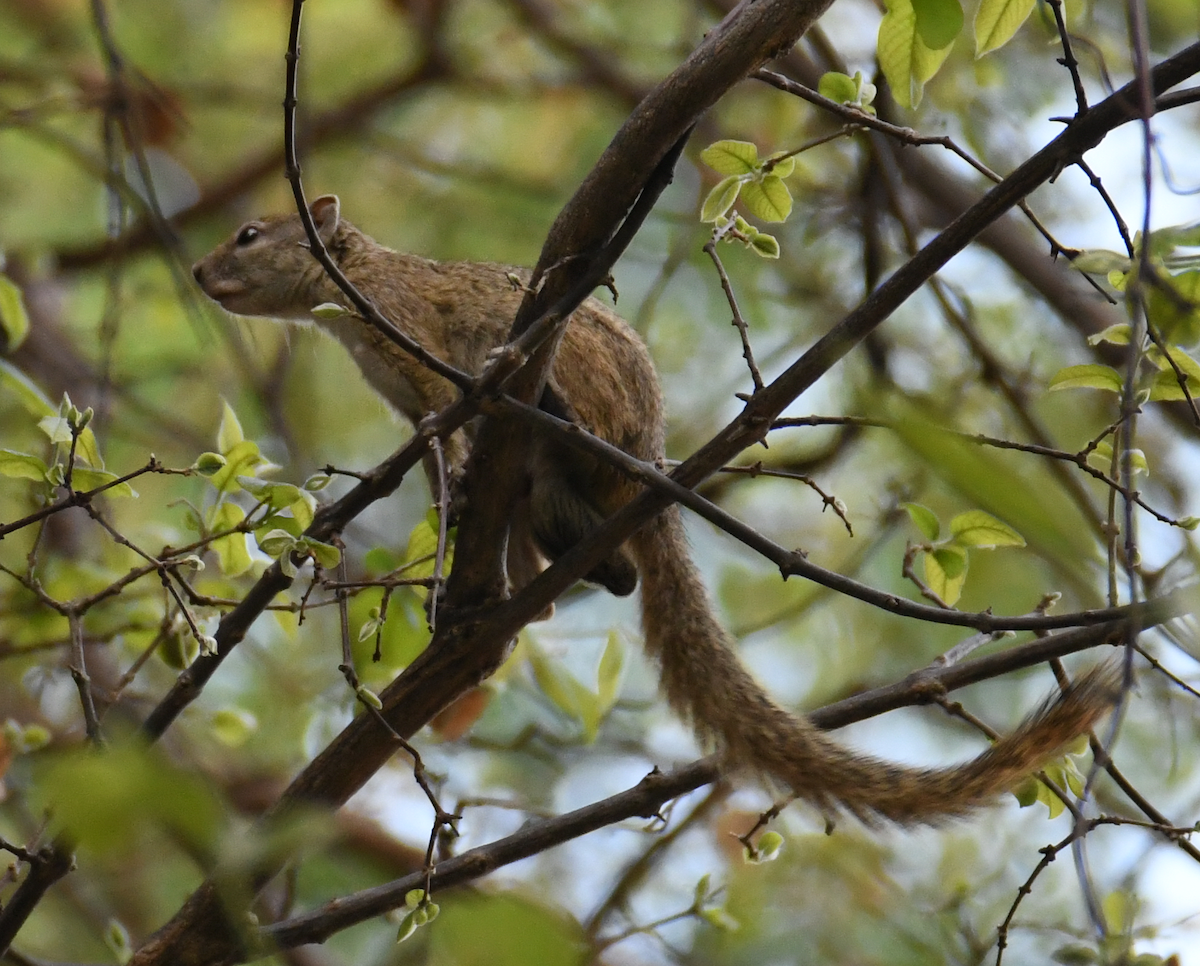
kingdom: Animalia
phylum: Chordata
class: Mammalia
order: Rodentia
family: Sciuridae
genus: Paraxerus
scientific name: Paraxerus cepapi
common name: Smith's bush squirrel
